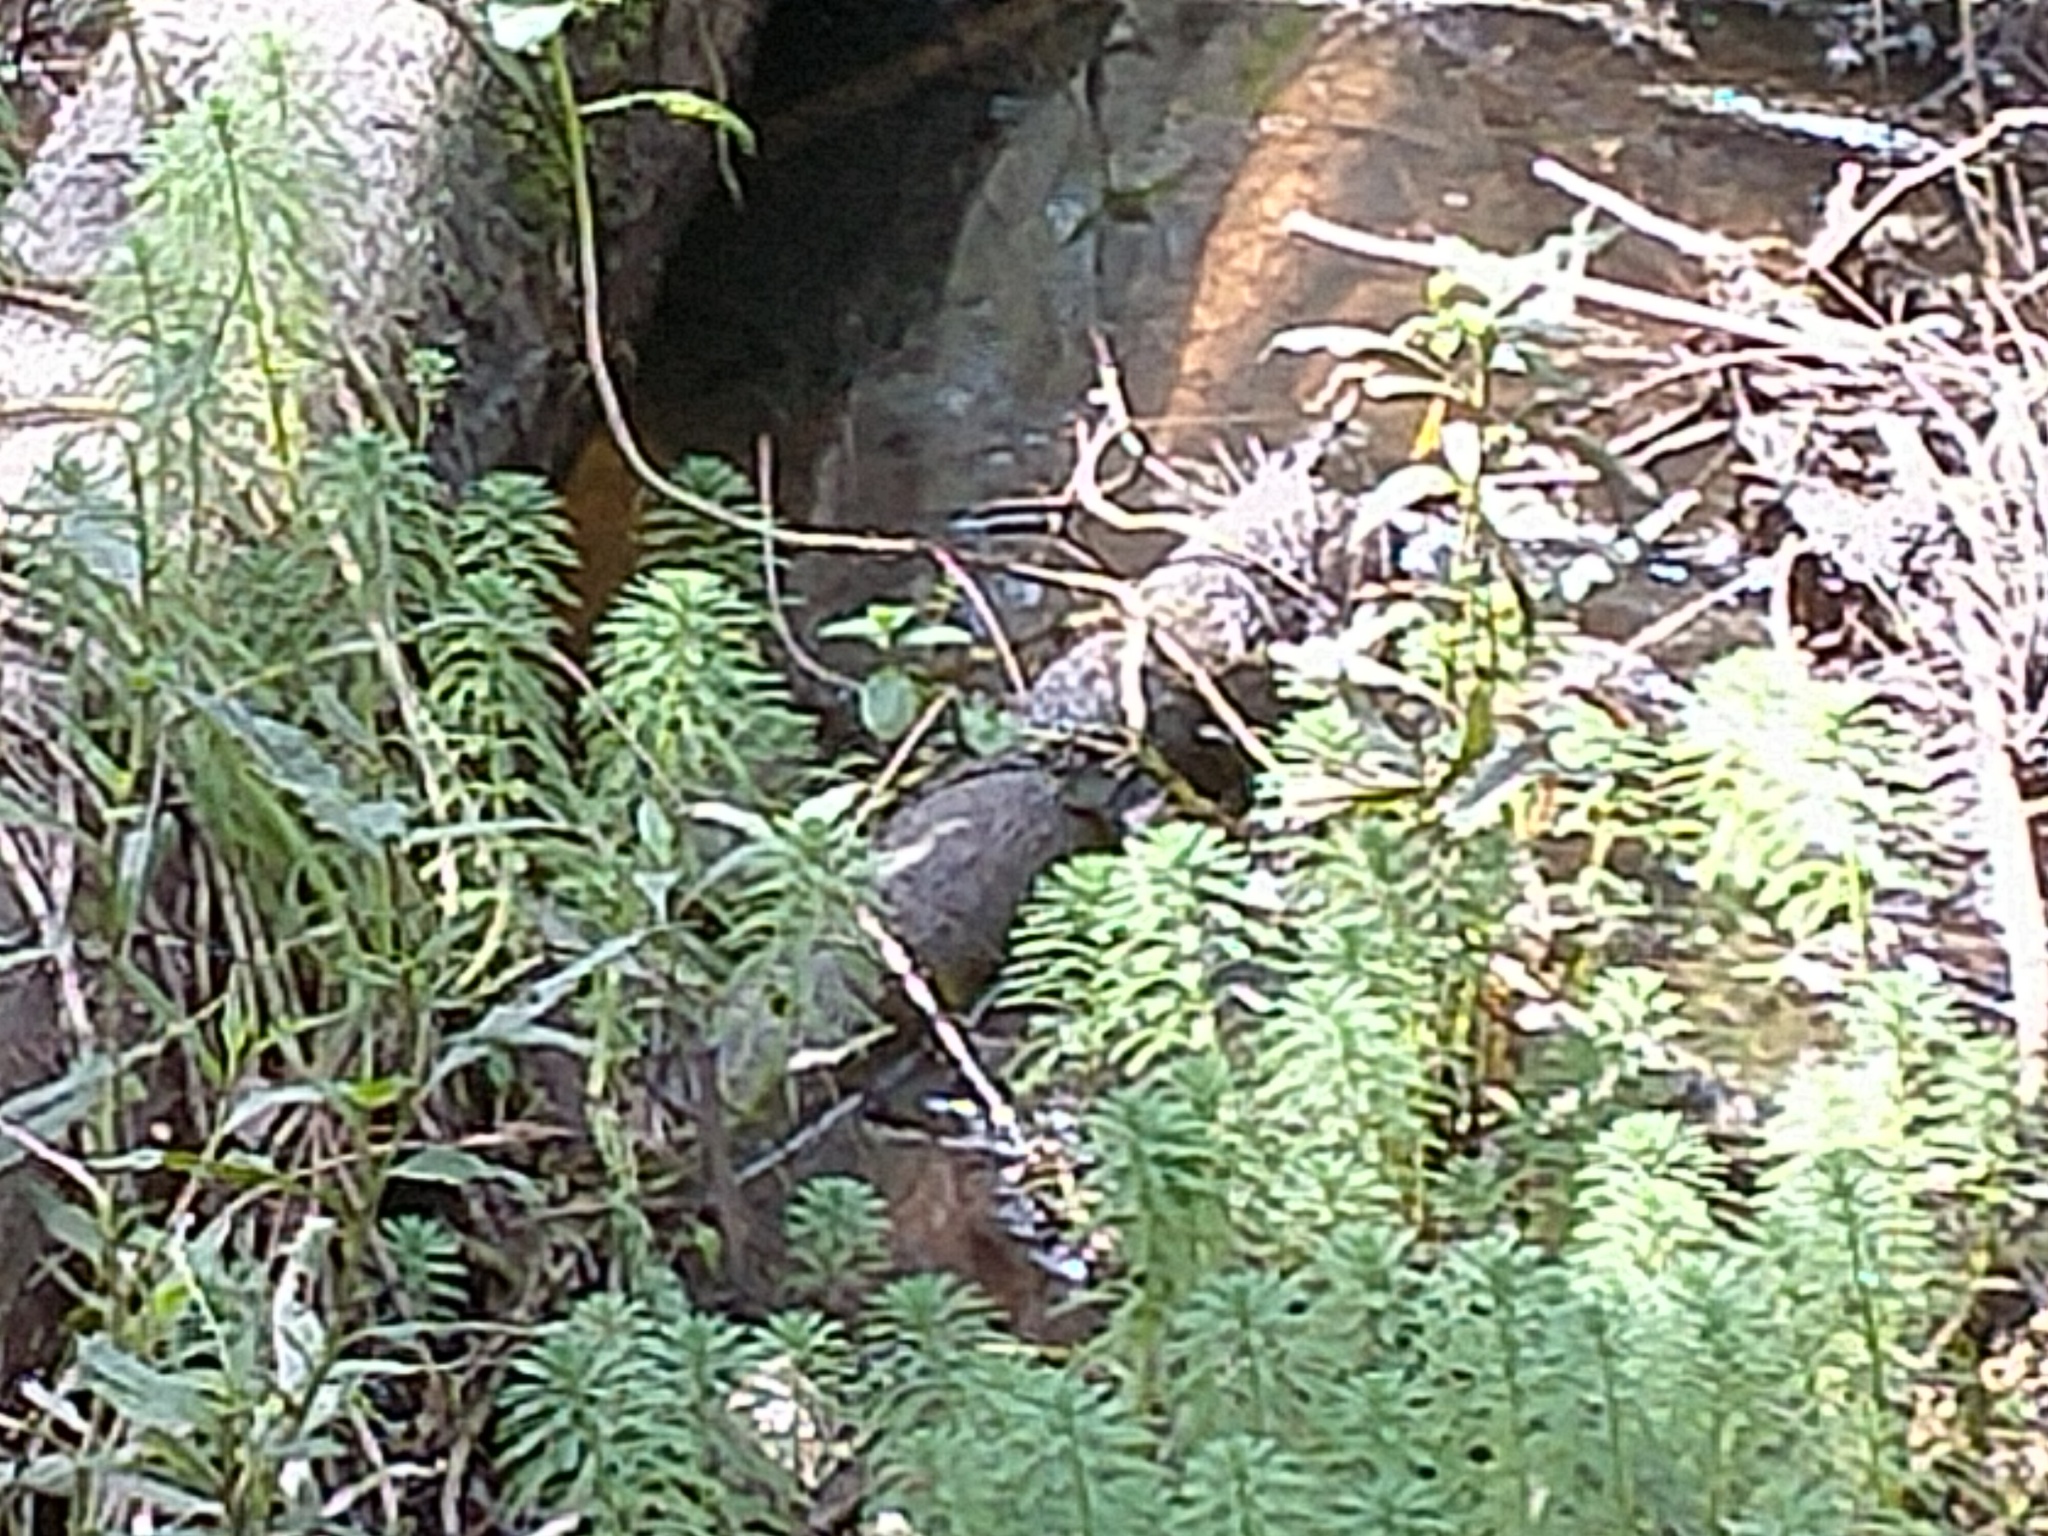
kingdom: Plantae
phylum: Tracheophyta
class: Magnoliopsida
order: Saxifragales
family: Haloragaceae
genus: Myriophyllum
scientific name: Myriophyllum aquaticum
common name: Parrot's feather
